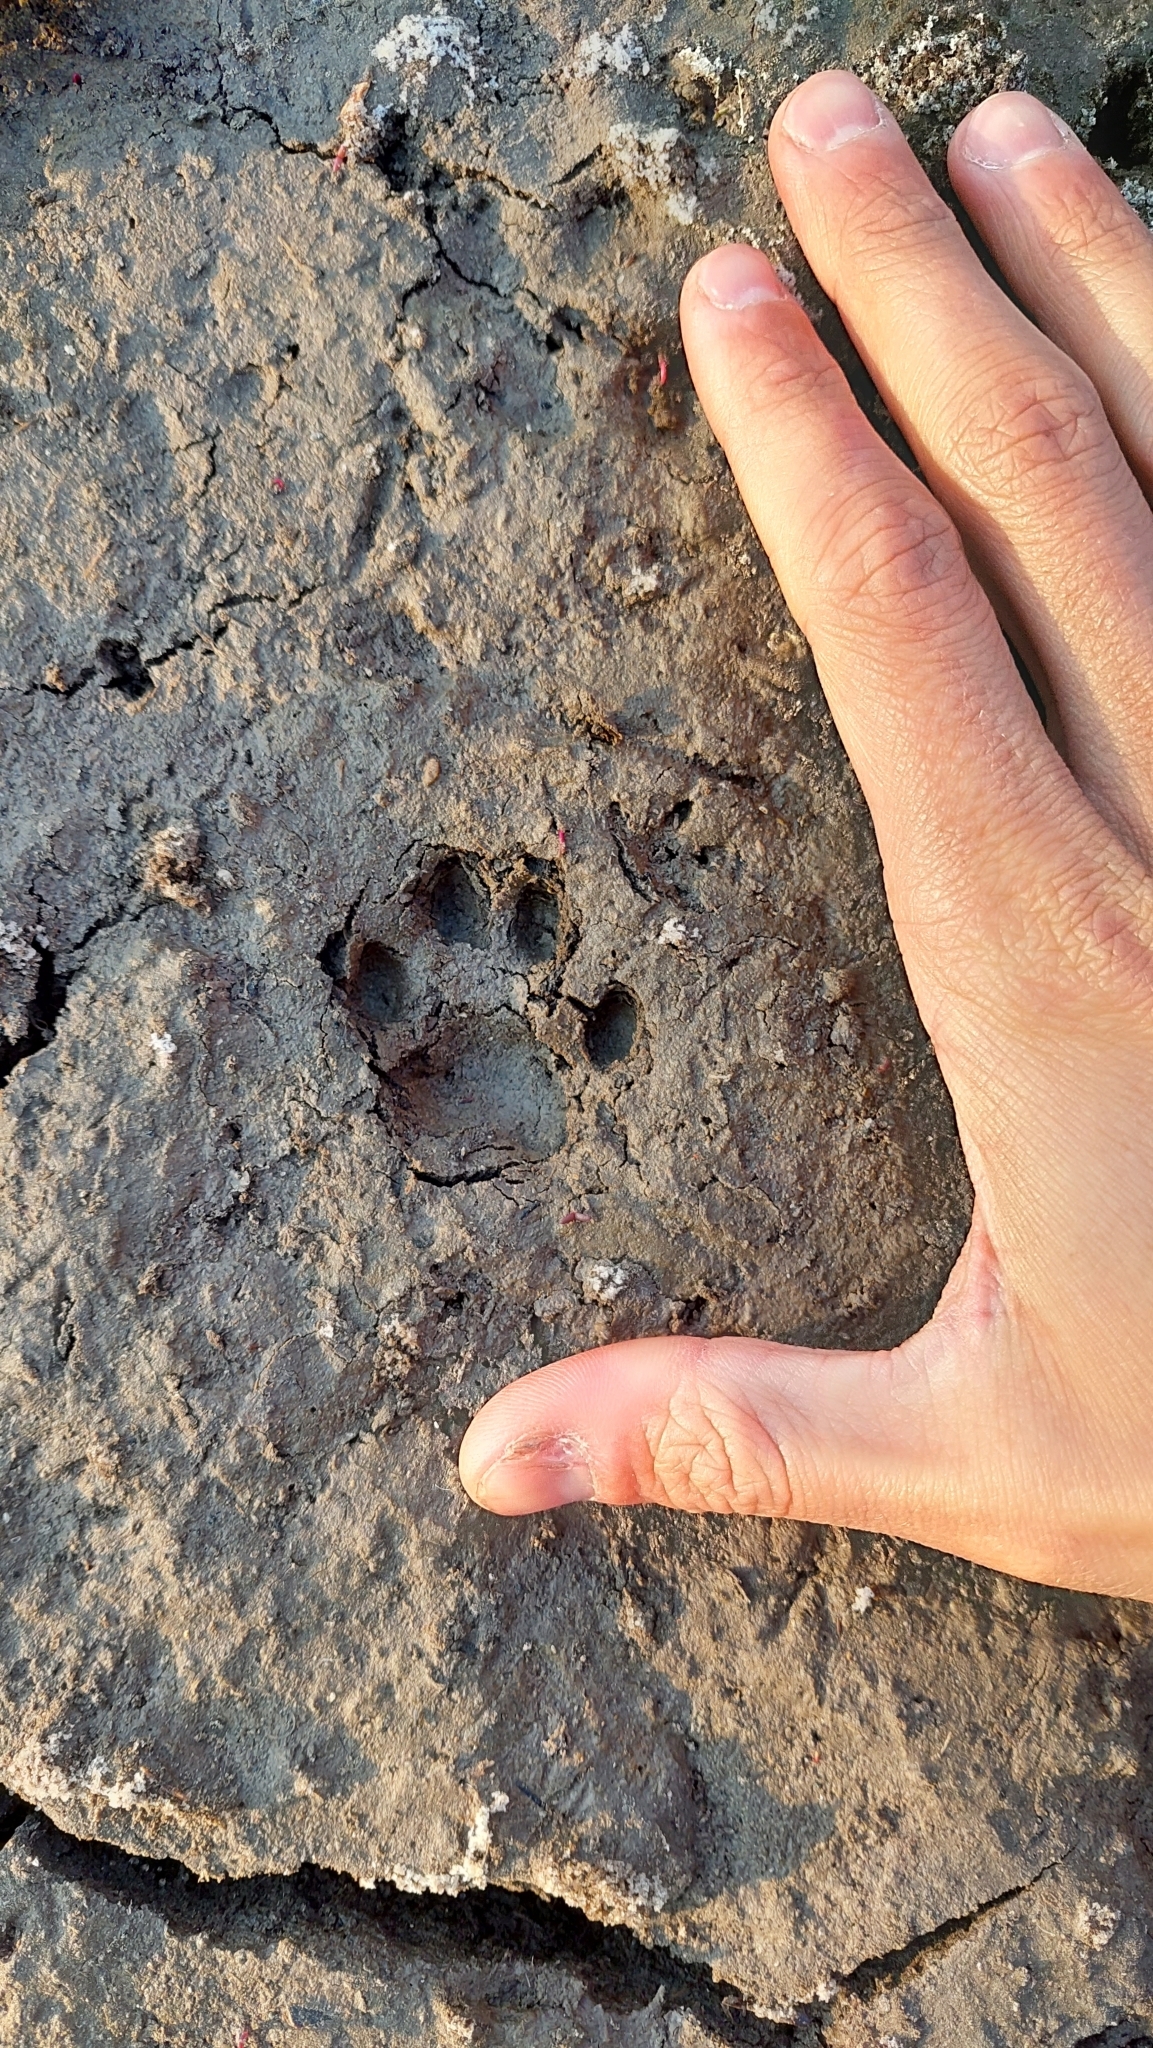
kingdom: Animalia
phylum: Chordata
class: Mammalia
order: Carnivora
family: Felidae
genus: Leopardus
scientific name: Leopardus geoffroyi
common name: Geoffroy's cat
